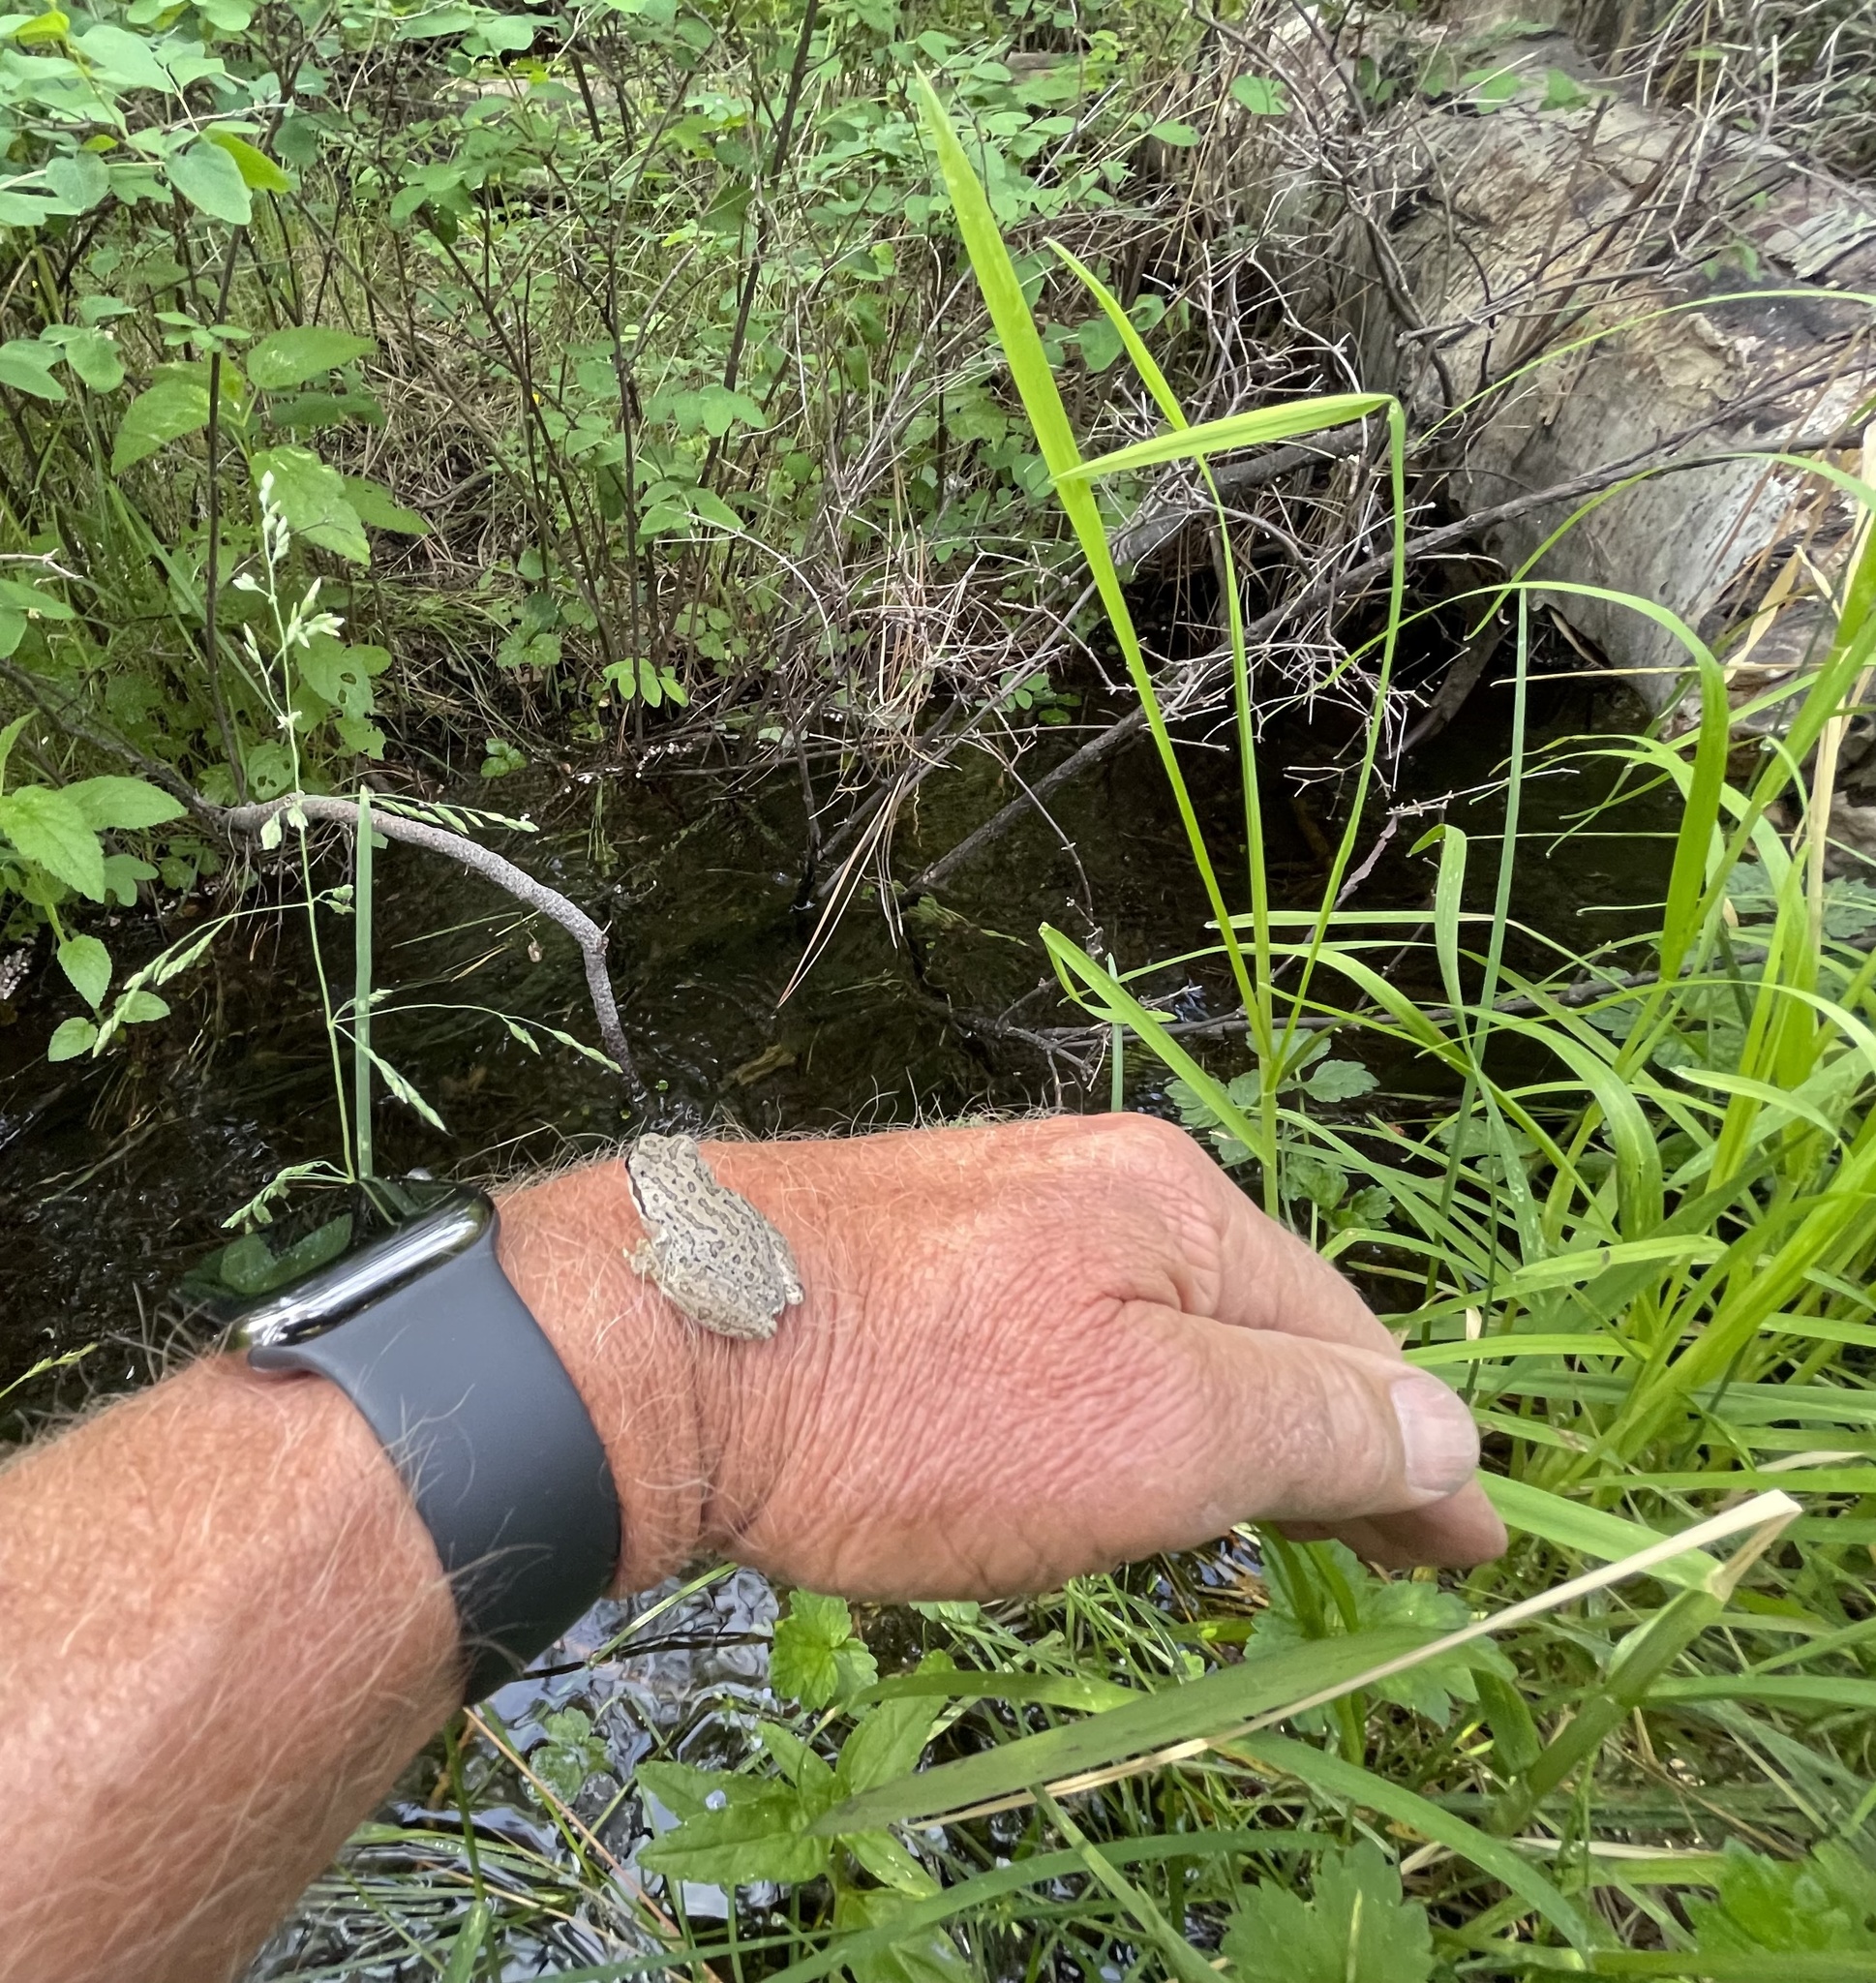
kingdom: Animalia
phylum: Chordata
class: Amphibia
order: Anura
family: Hylidae
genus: Pseudacris
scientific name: Pseudacris regilla
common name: Pacific chorus frog
